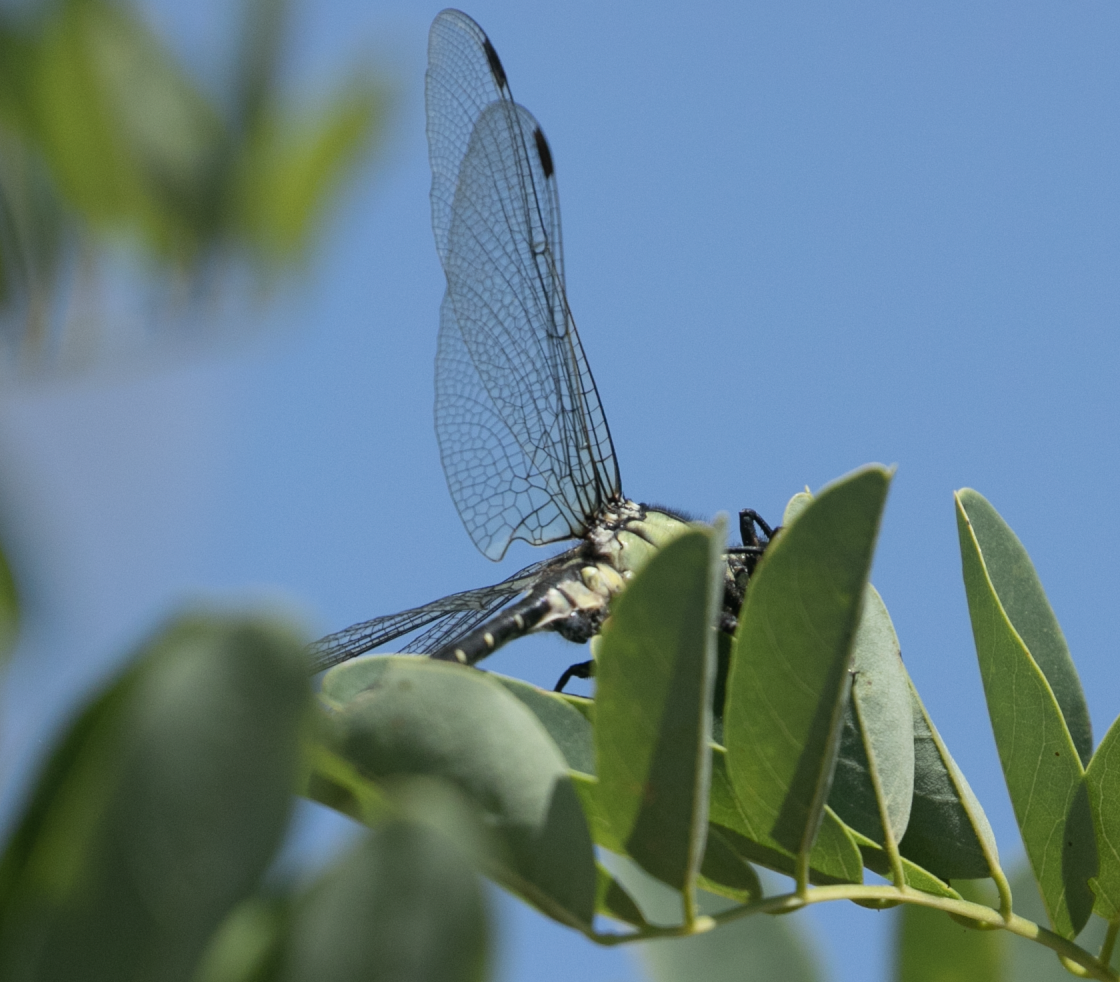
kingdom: Animalia
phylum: Arthropoda
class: Insecta
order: Odonata
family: Gomphidae
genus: Gomphus
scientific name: Gomphus vulgatissimus
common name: Club-tailed dragonfly
